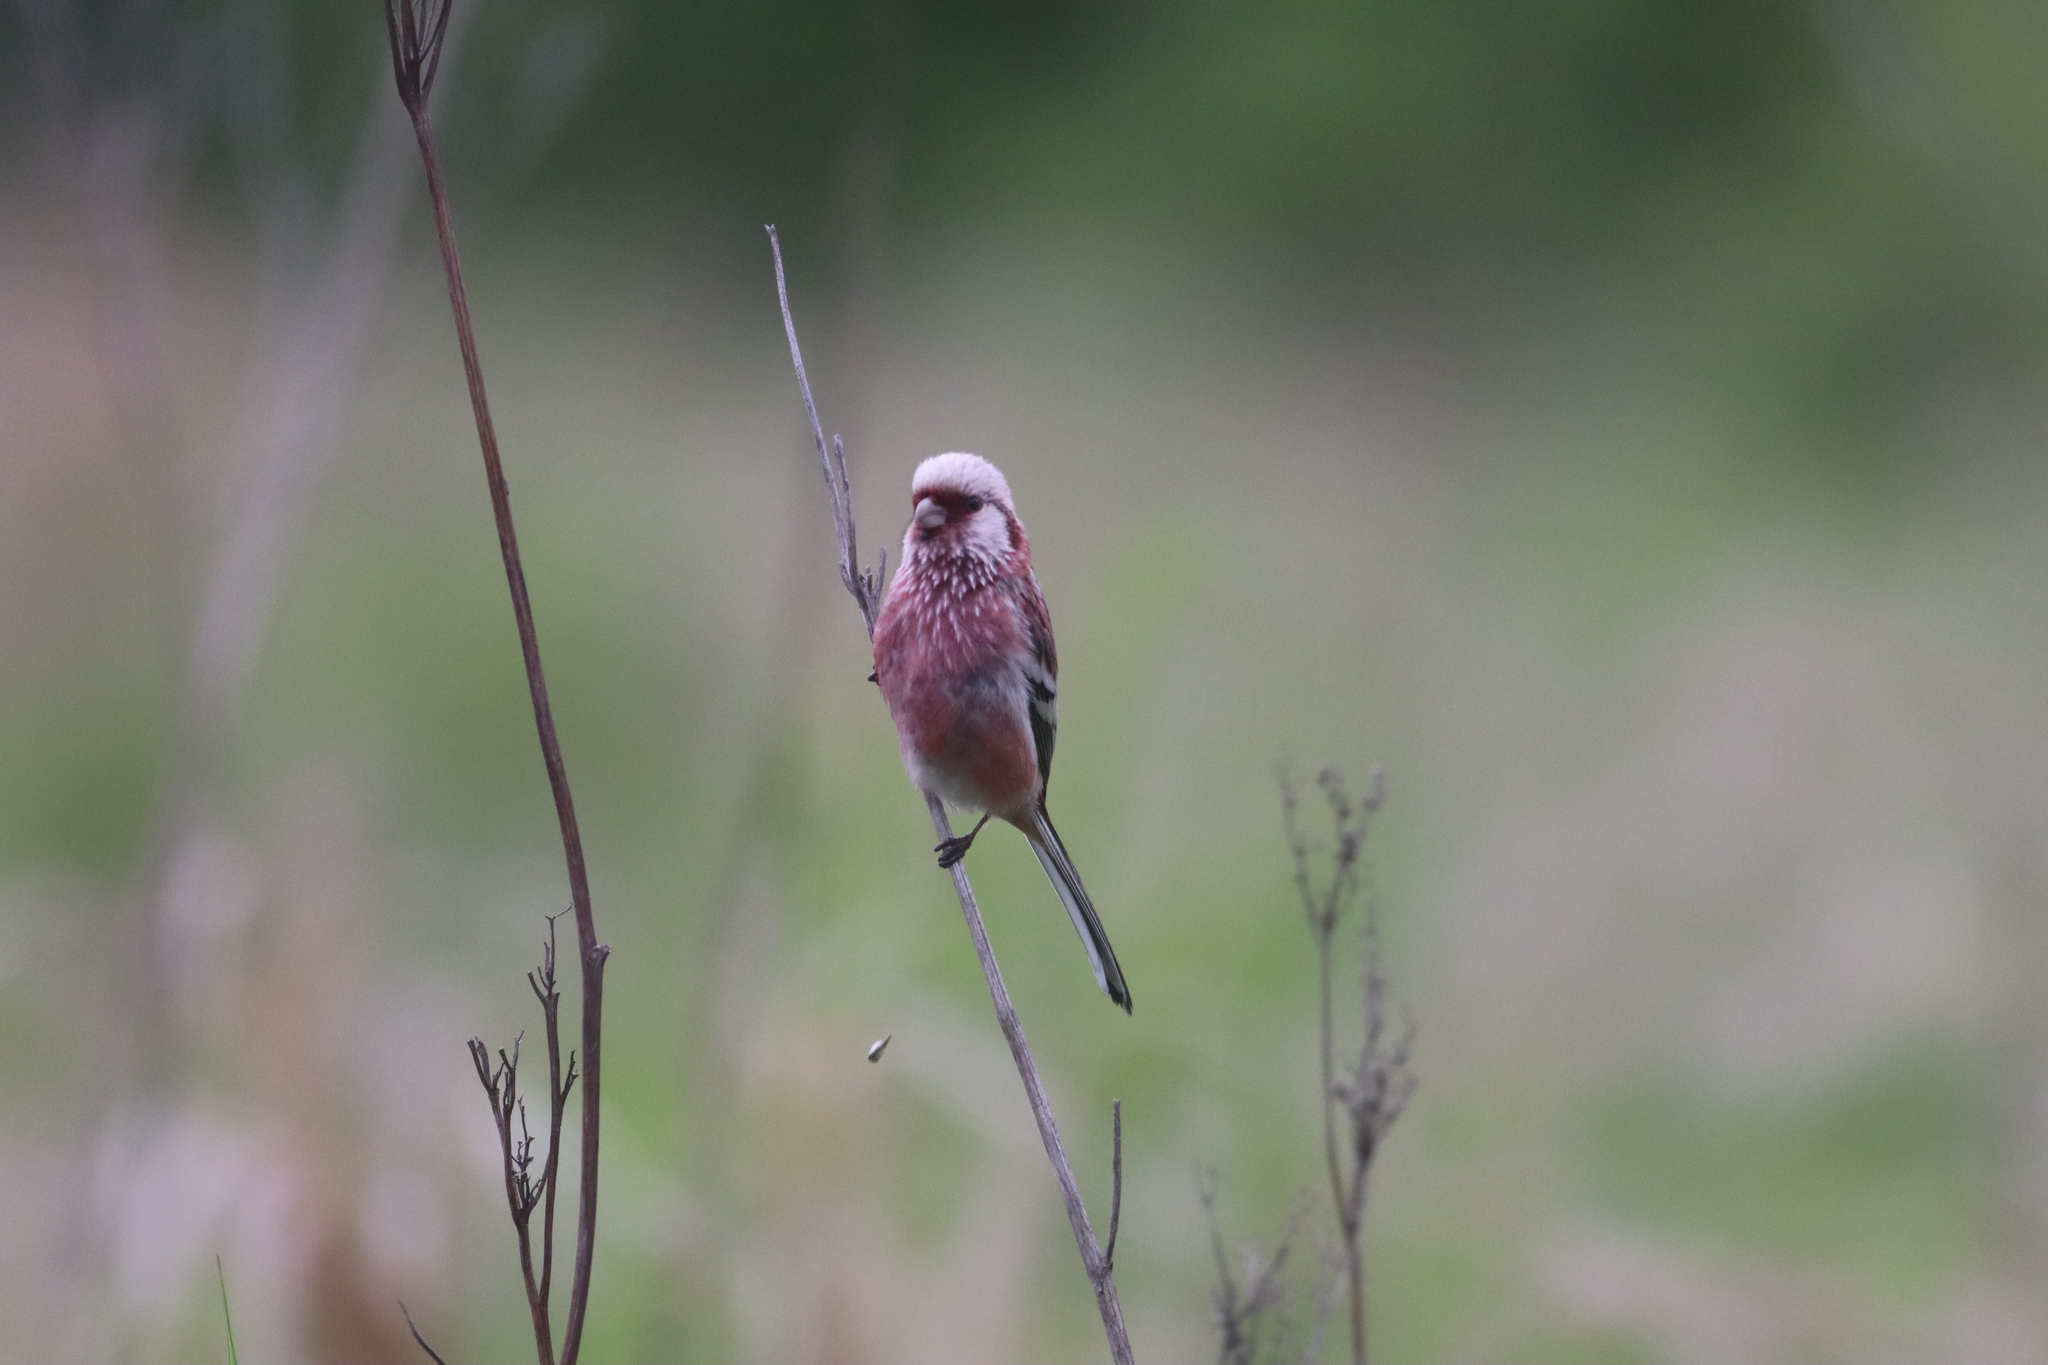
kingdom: Animalia
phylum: Chordata
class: Aves
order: Passeriformes
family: Fringillidae
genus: Carpodacus
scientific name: Carpodacus sibiricus
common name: Long-tailed rosefinch
